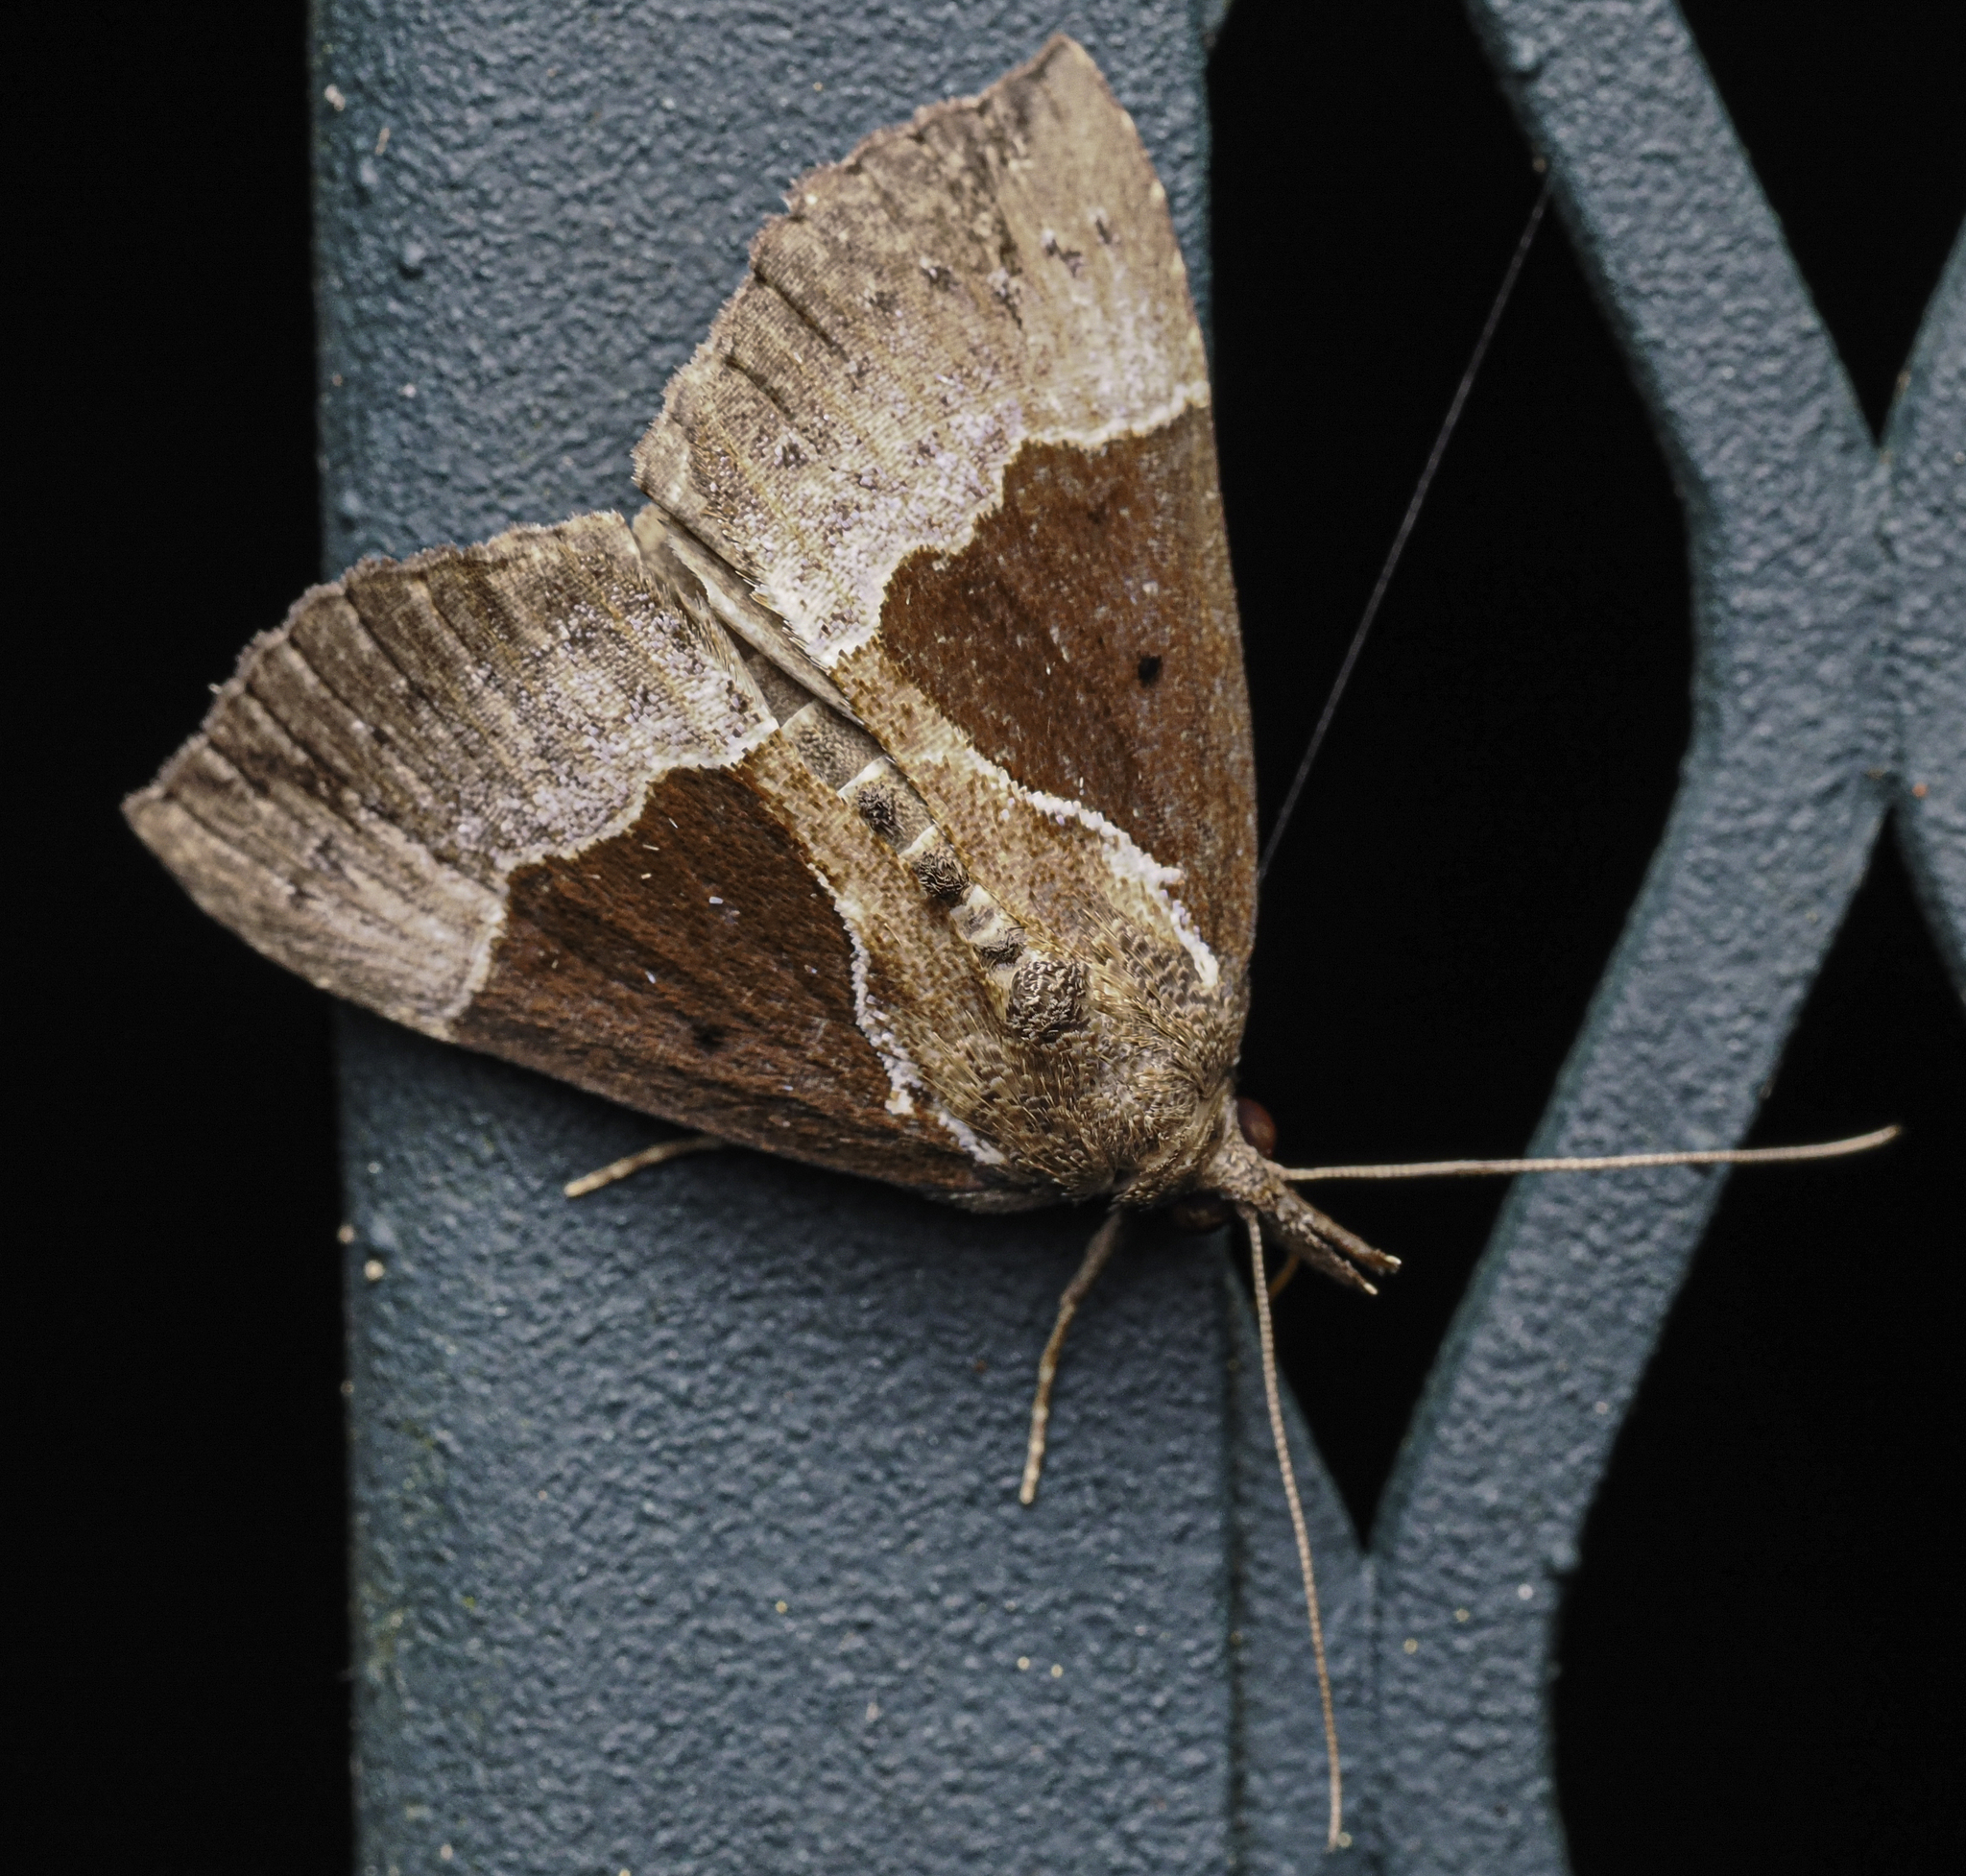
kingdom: Animalia
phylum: Arthropoda
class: Insecta
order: Lepidoptera
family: Erebidae
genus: Hypena
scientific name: Hypena bijugalis
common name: Dimorphic bomolocha moth
